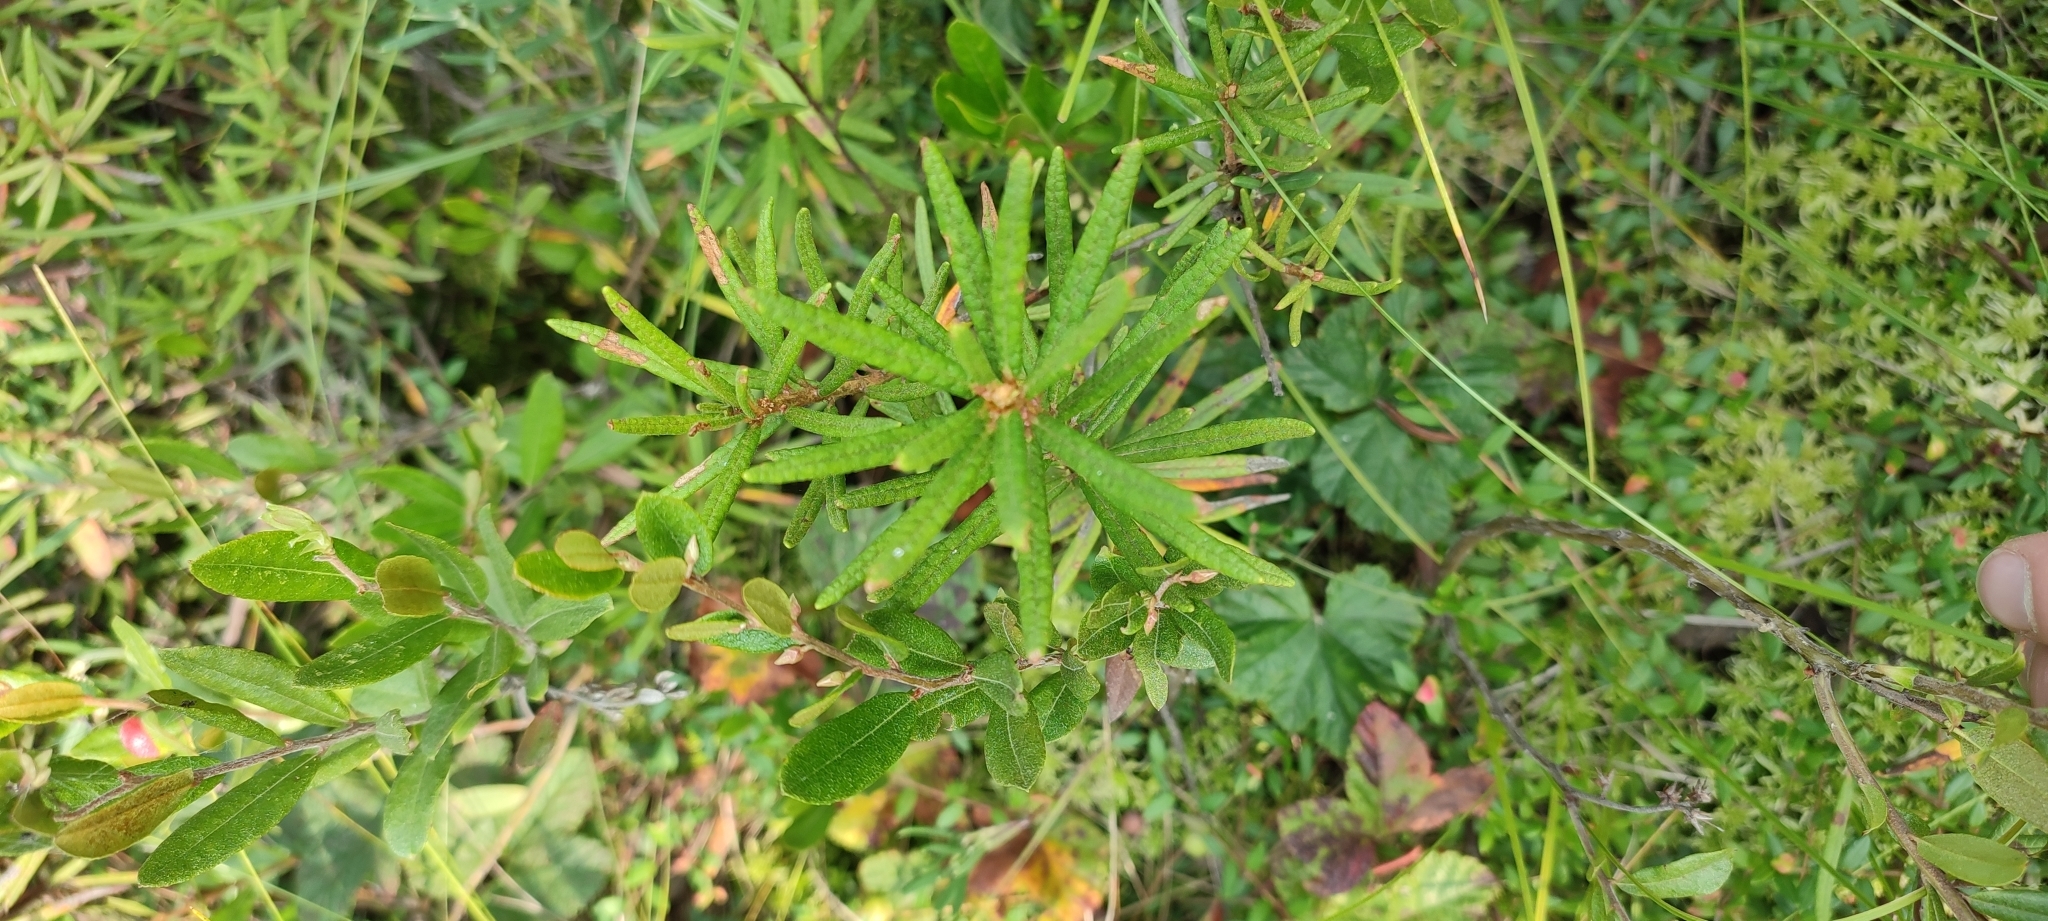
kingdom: Plantae
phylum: Tracheophyta
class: Magnoliopsida
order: Ericales
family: Ericaceae
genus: Rhododendron
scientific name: Rhododendron tomentosum
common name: Marsh labrador tea
